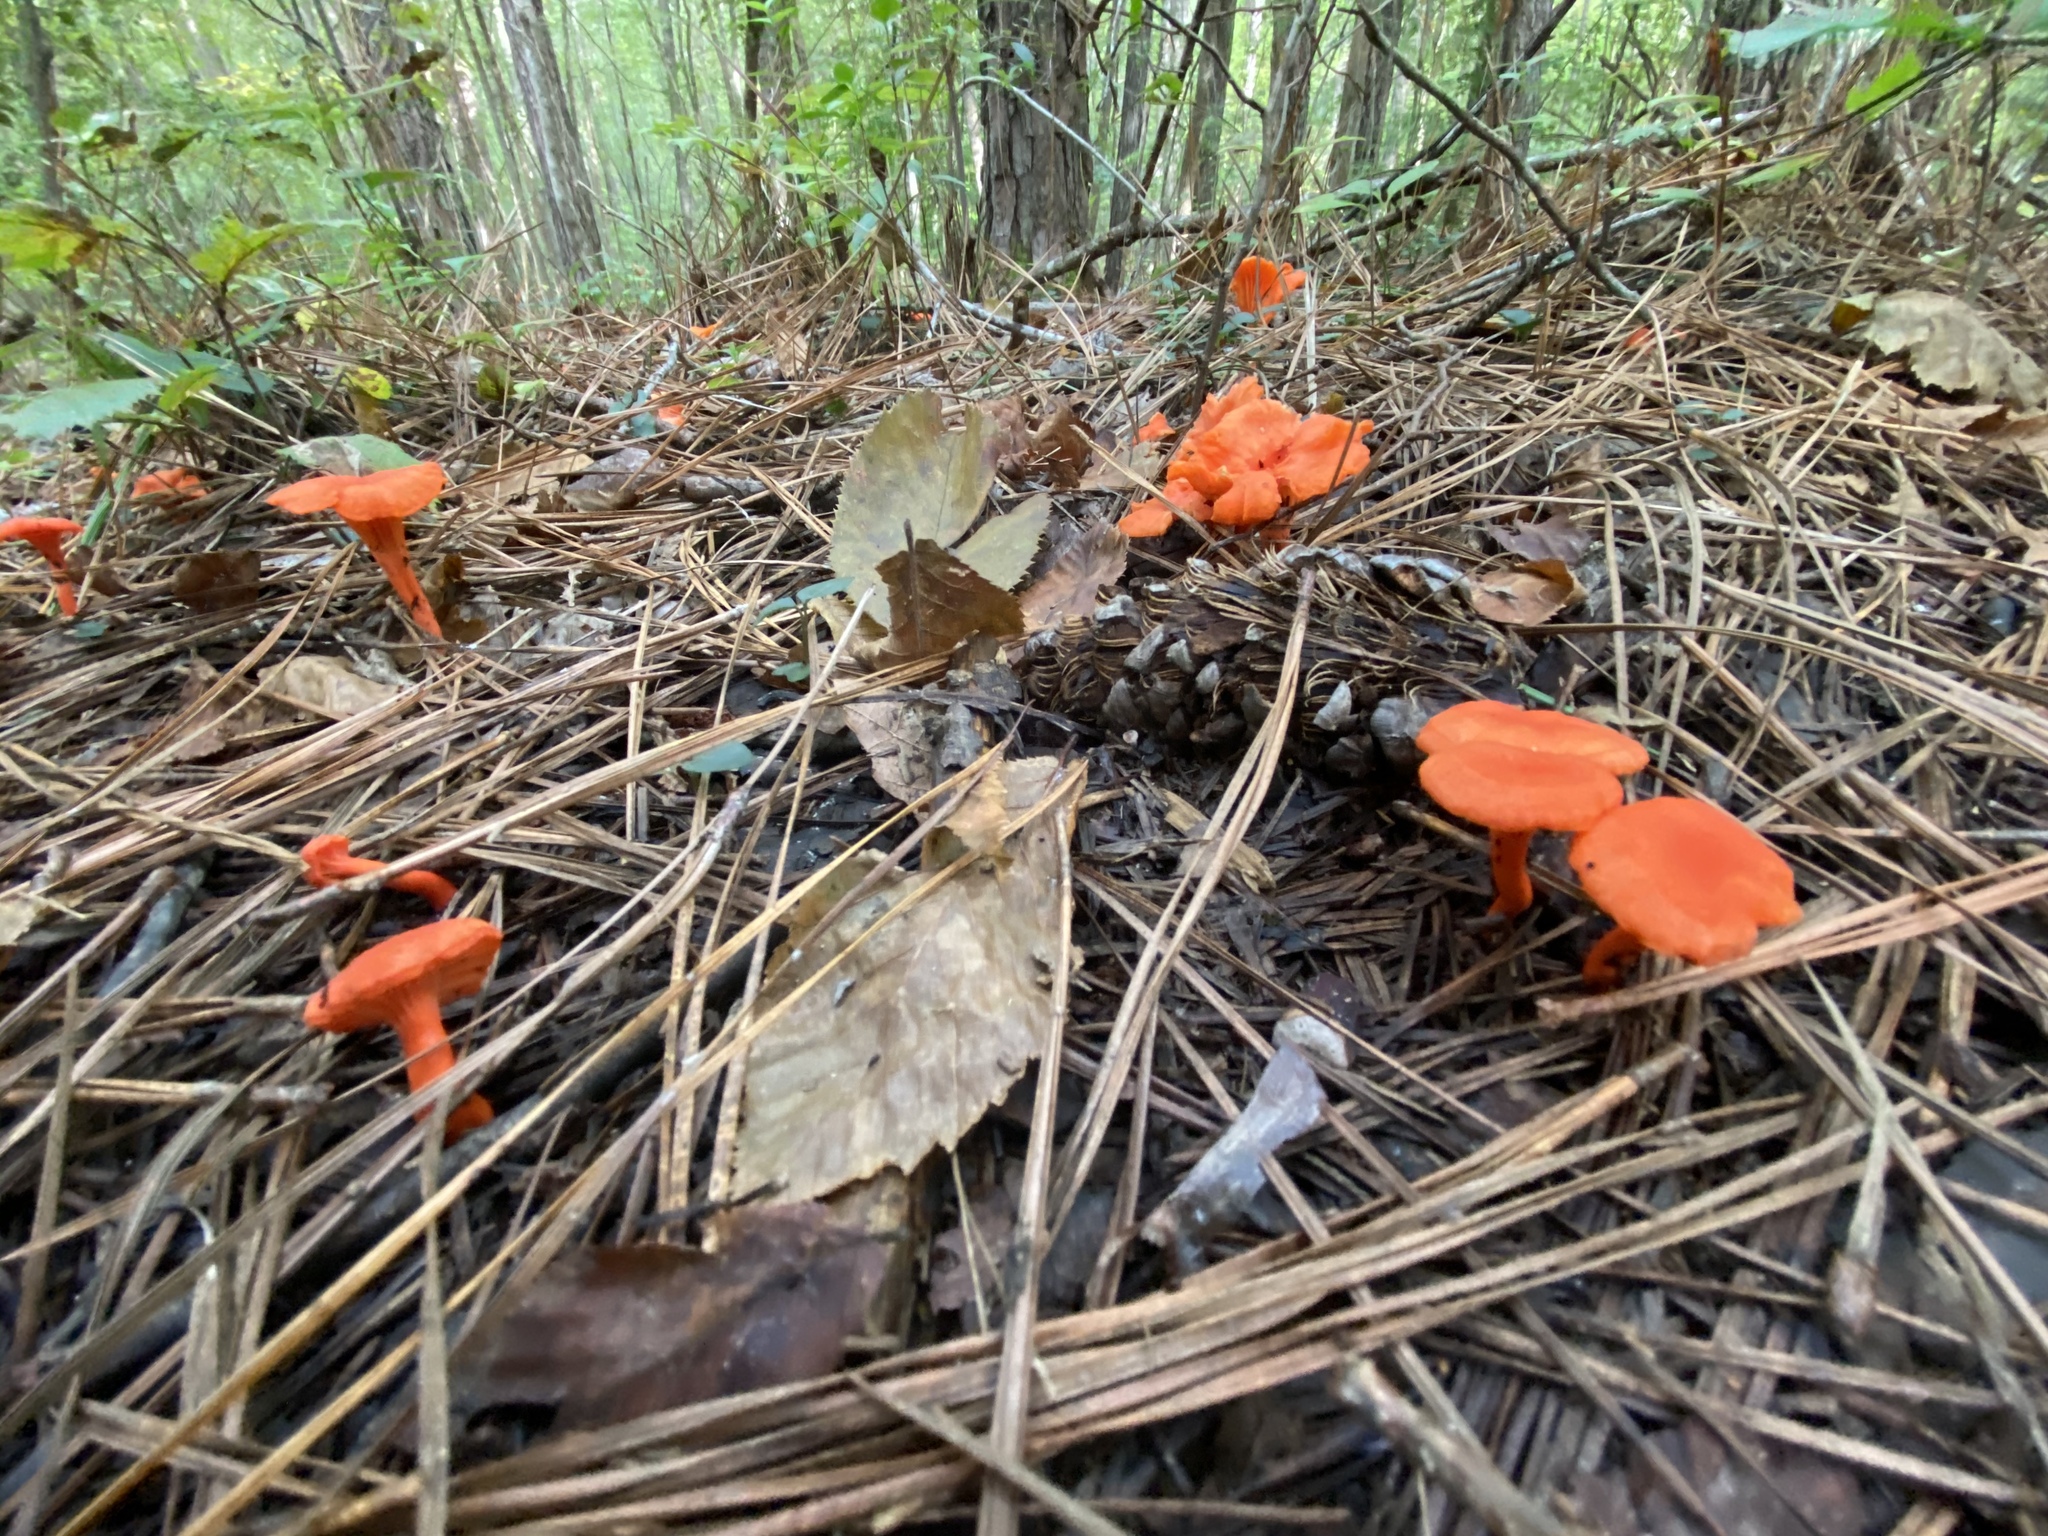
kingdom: Fungi
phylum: Basidiomycota
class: Agaricomycetes
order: Cantharellales
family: Hydnaceae
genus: Cantharellus
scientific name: Cantharellus cinnabarinus
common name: Cinnabar chanterelle
